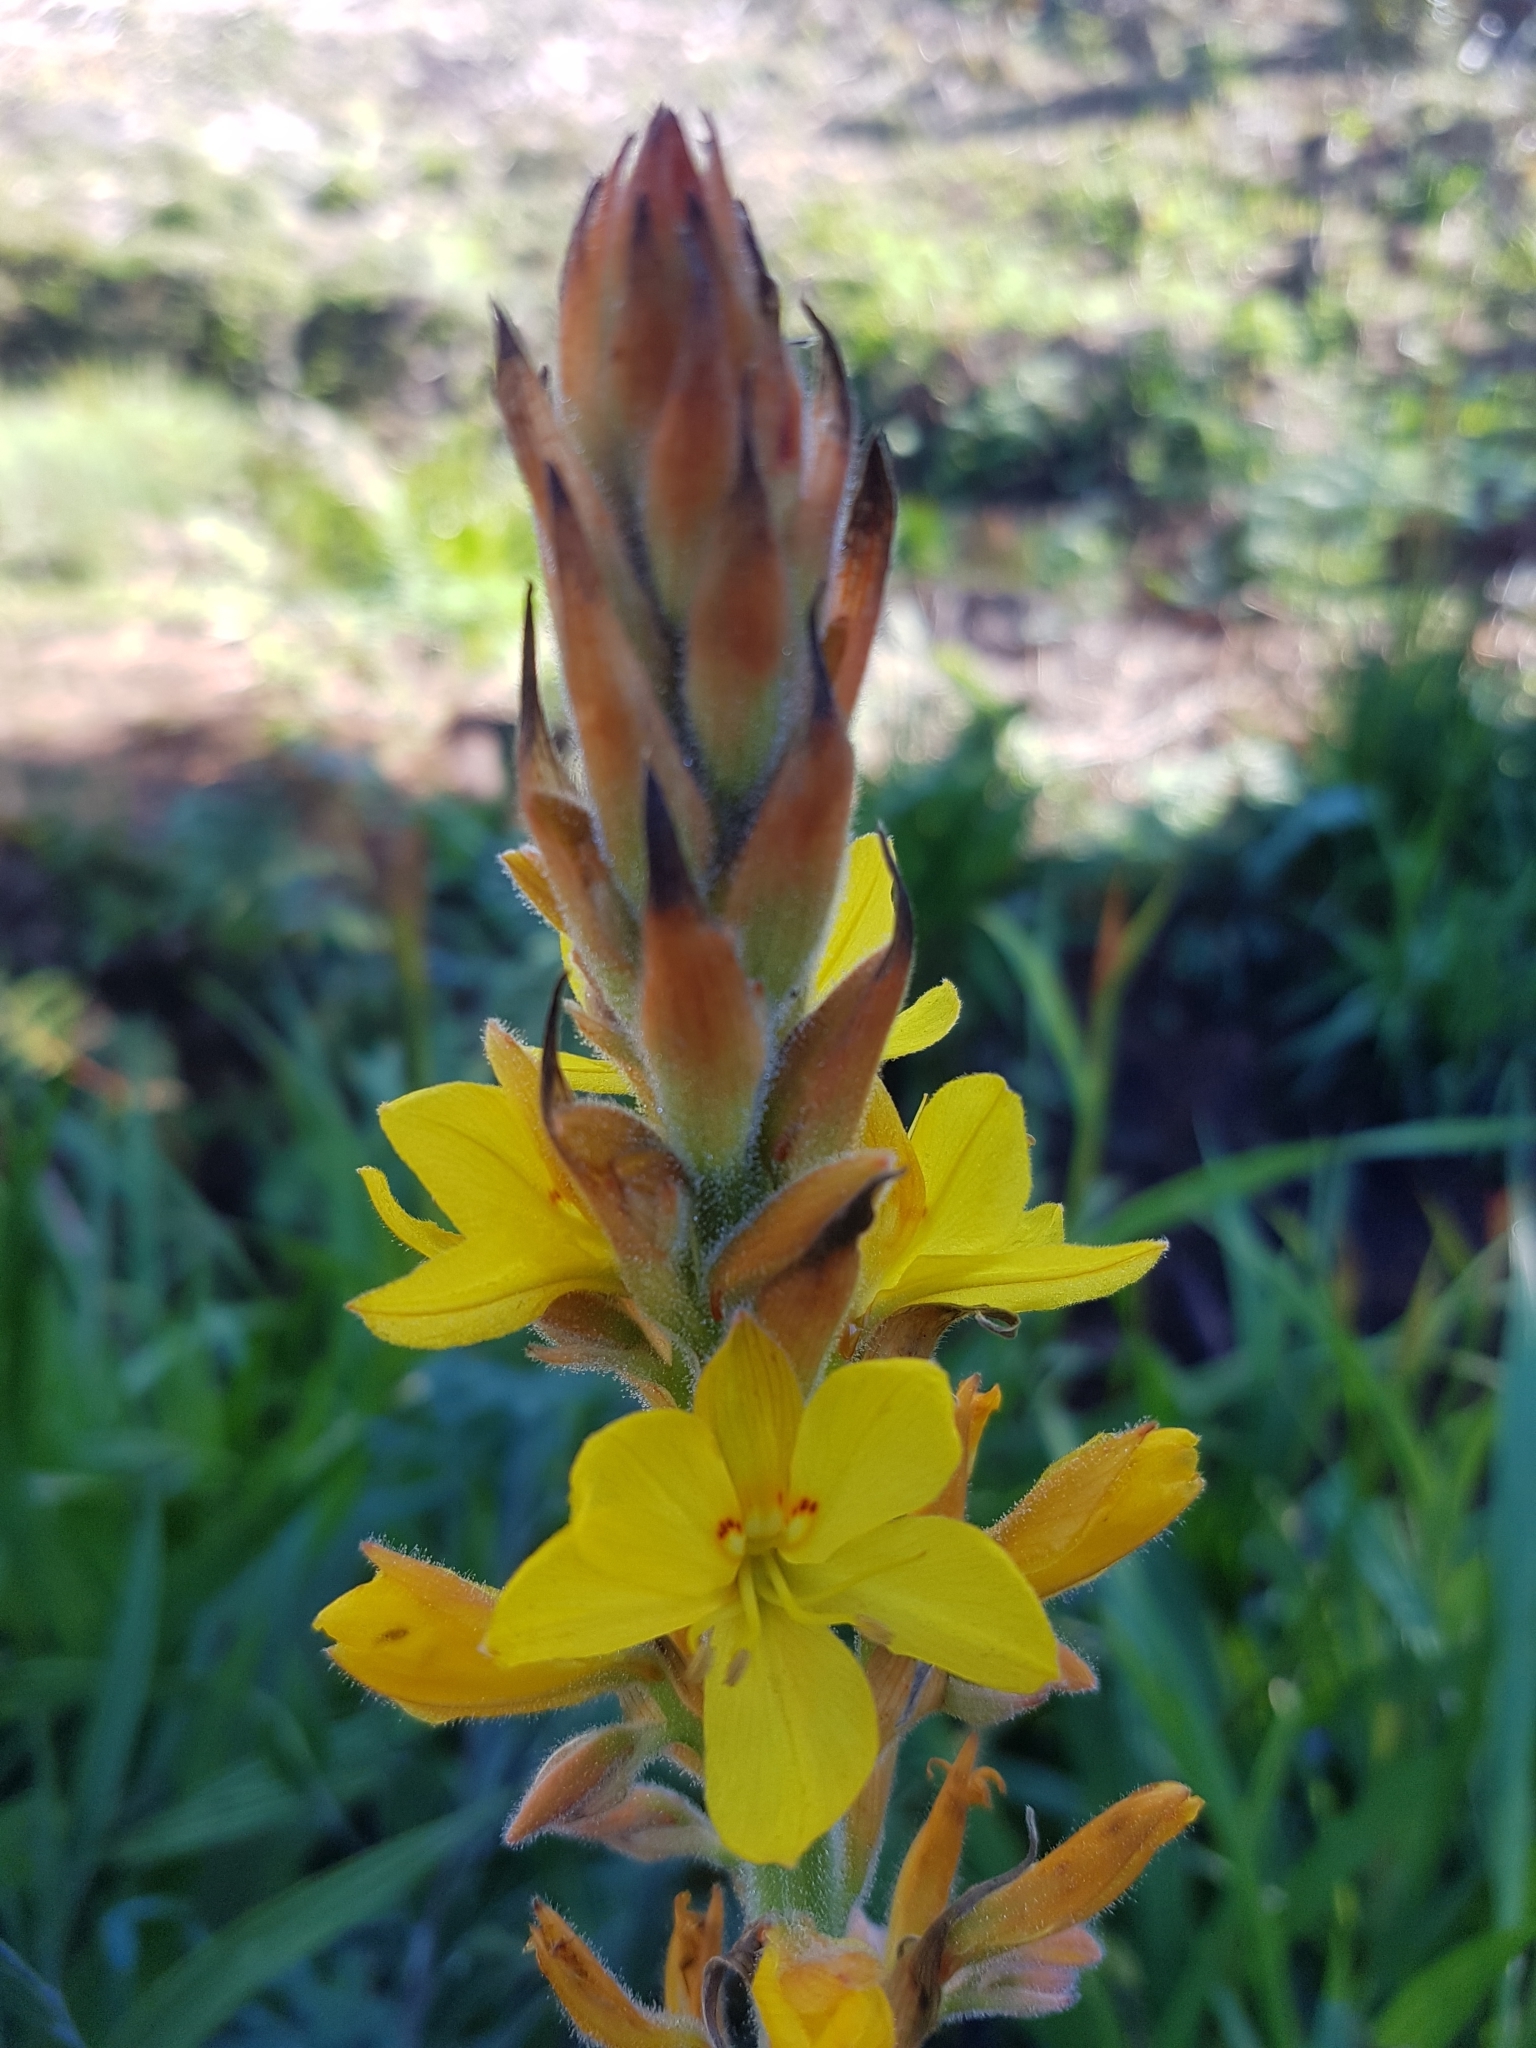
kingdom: Plantae
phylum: Tracheophyta
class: Liliopsida
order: Commelinales
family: Haemodoraceae
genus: Wachendorfia
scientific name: Wachendorfia thyrsiflora
